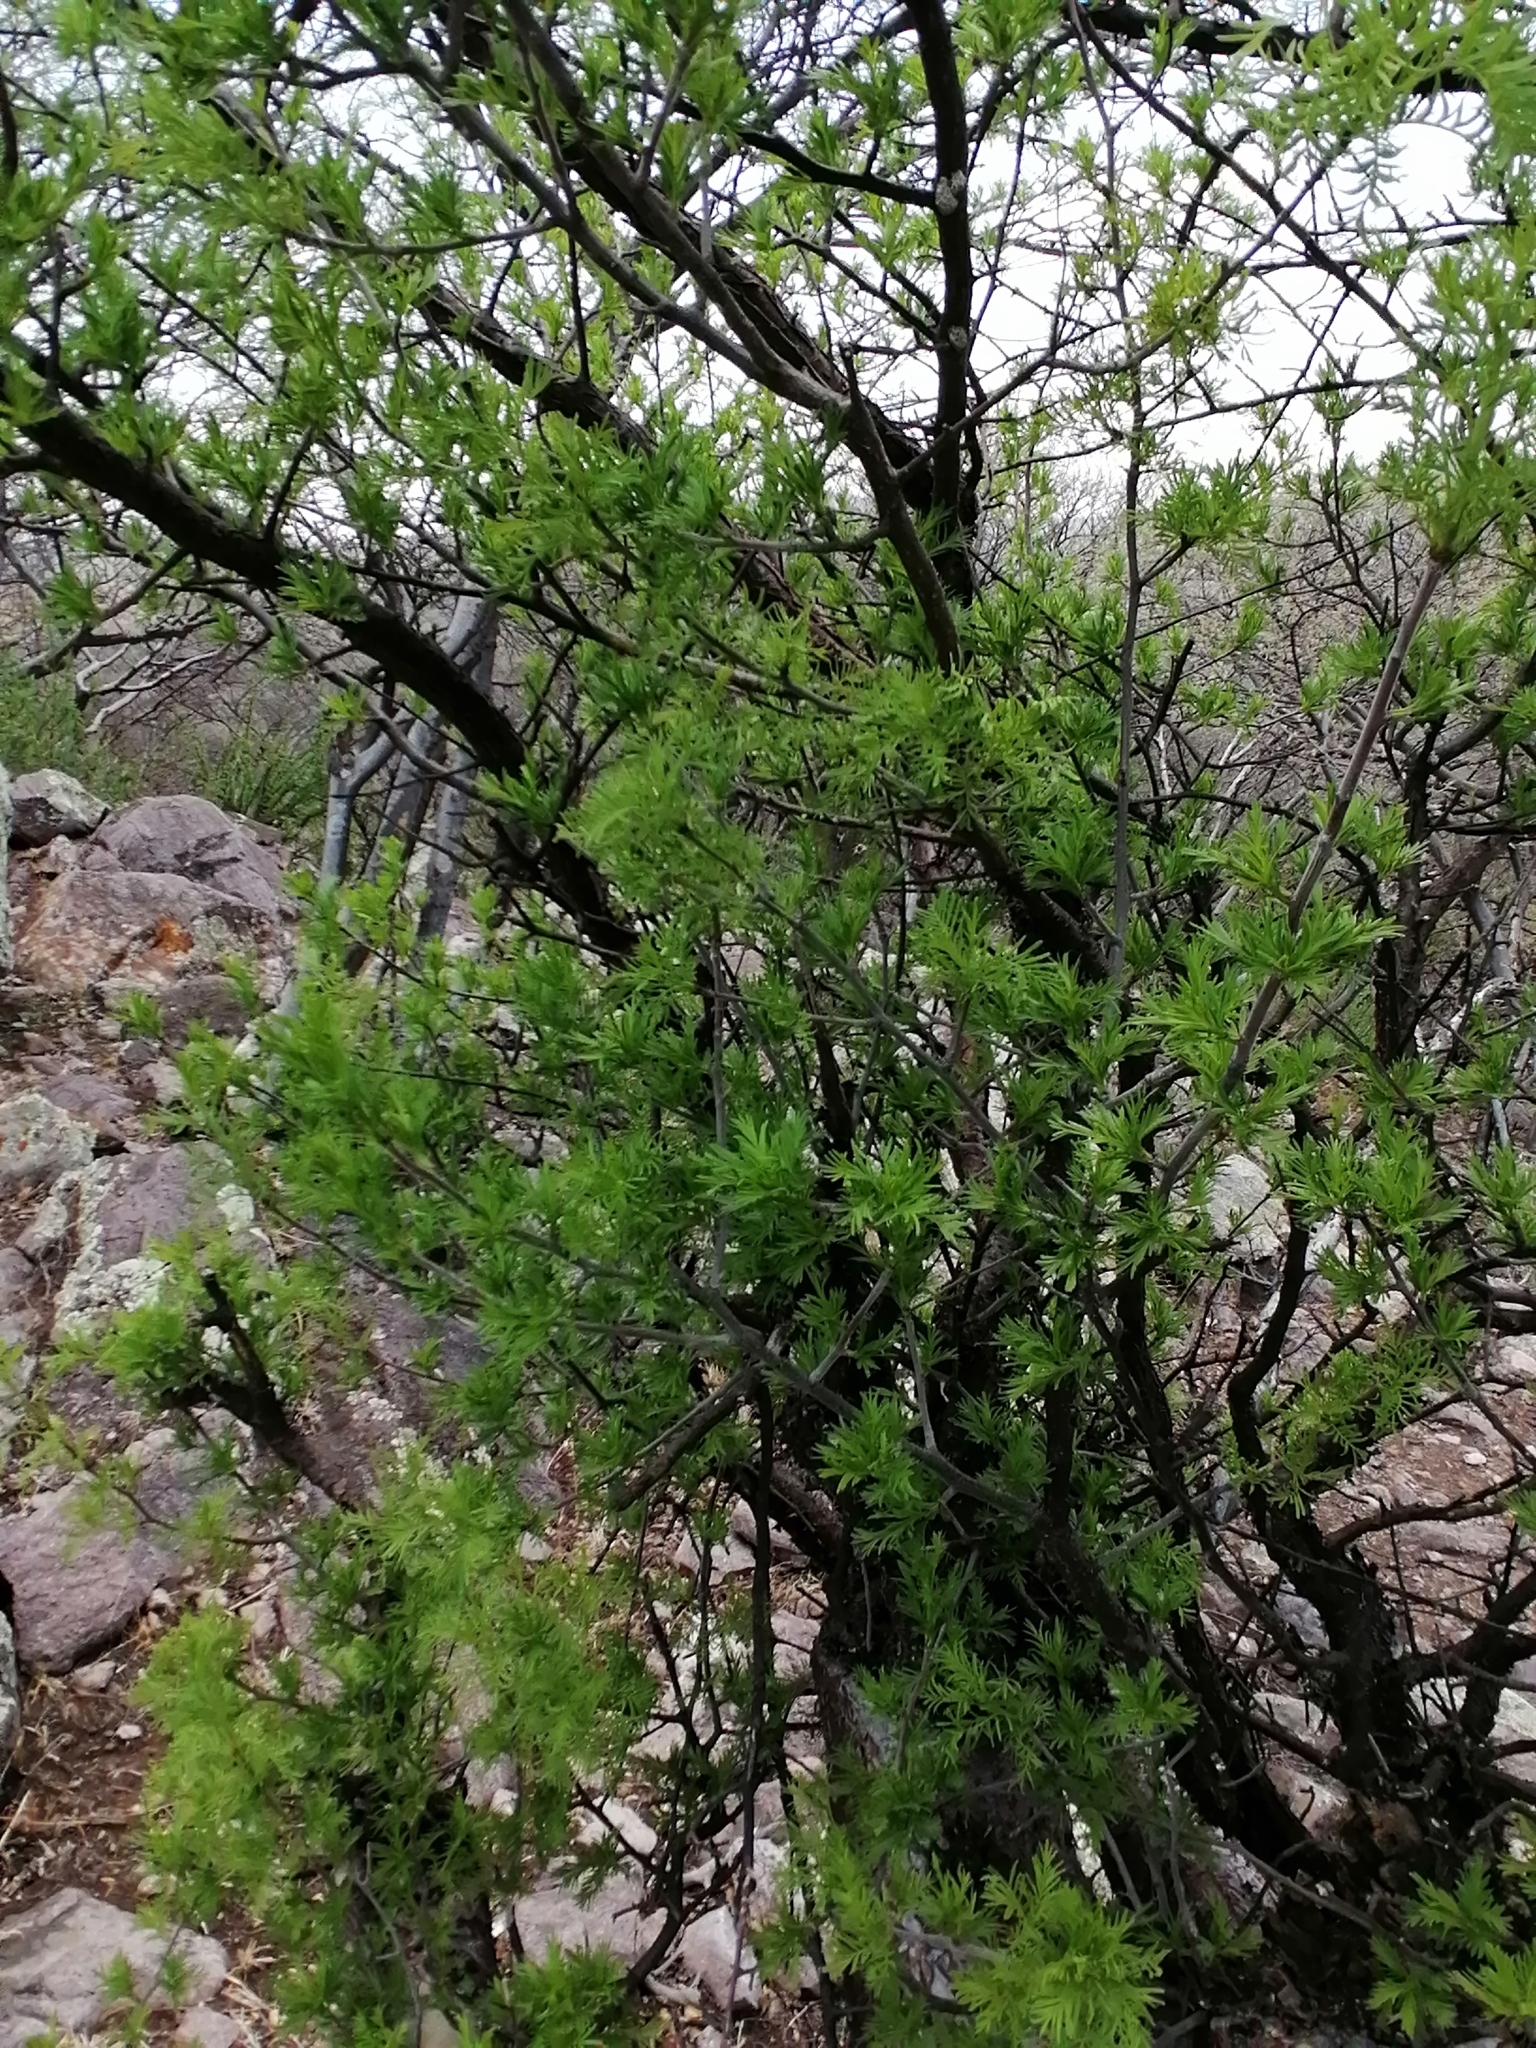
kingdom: Plantae
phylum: Tracheophyta
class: Magnoliopsida
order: Sapindales
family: Burseraceae
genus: Bursera
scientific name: Bursera galeottiana
